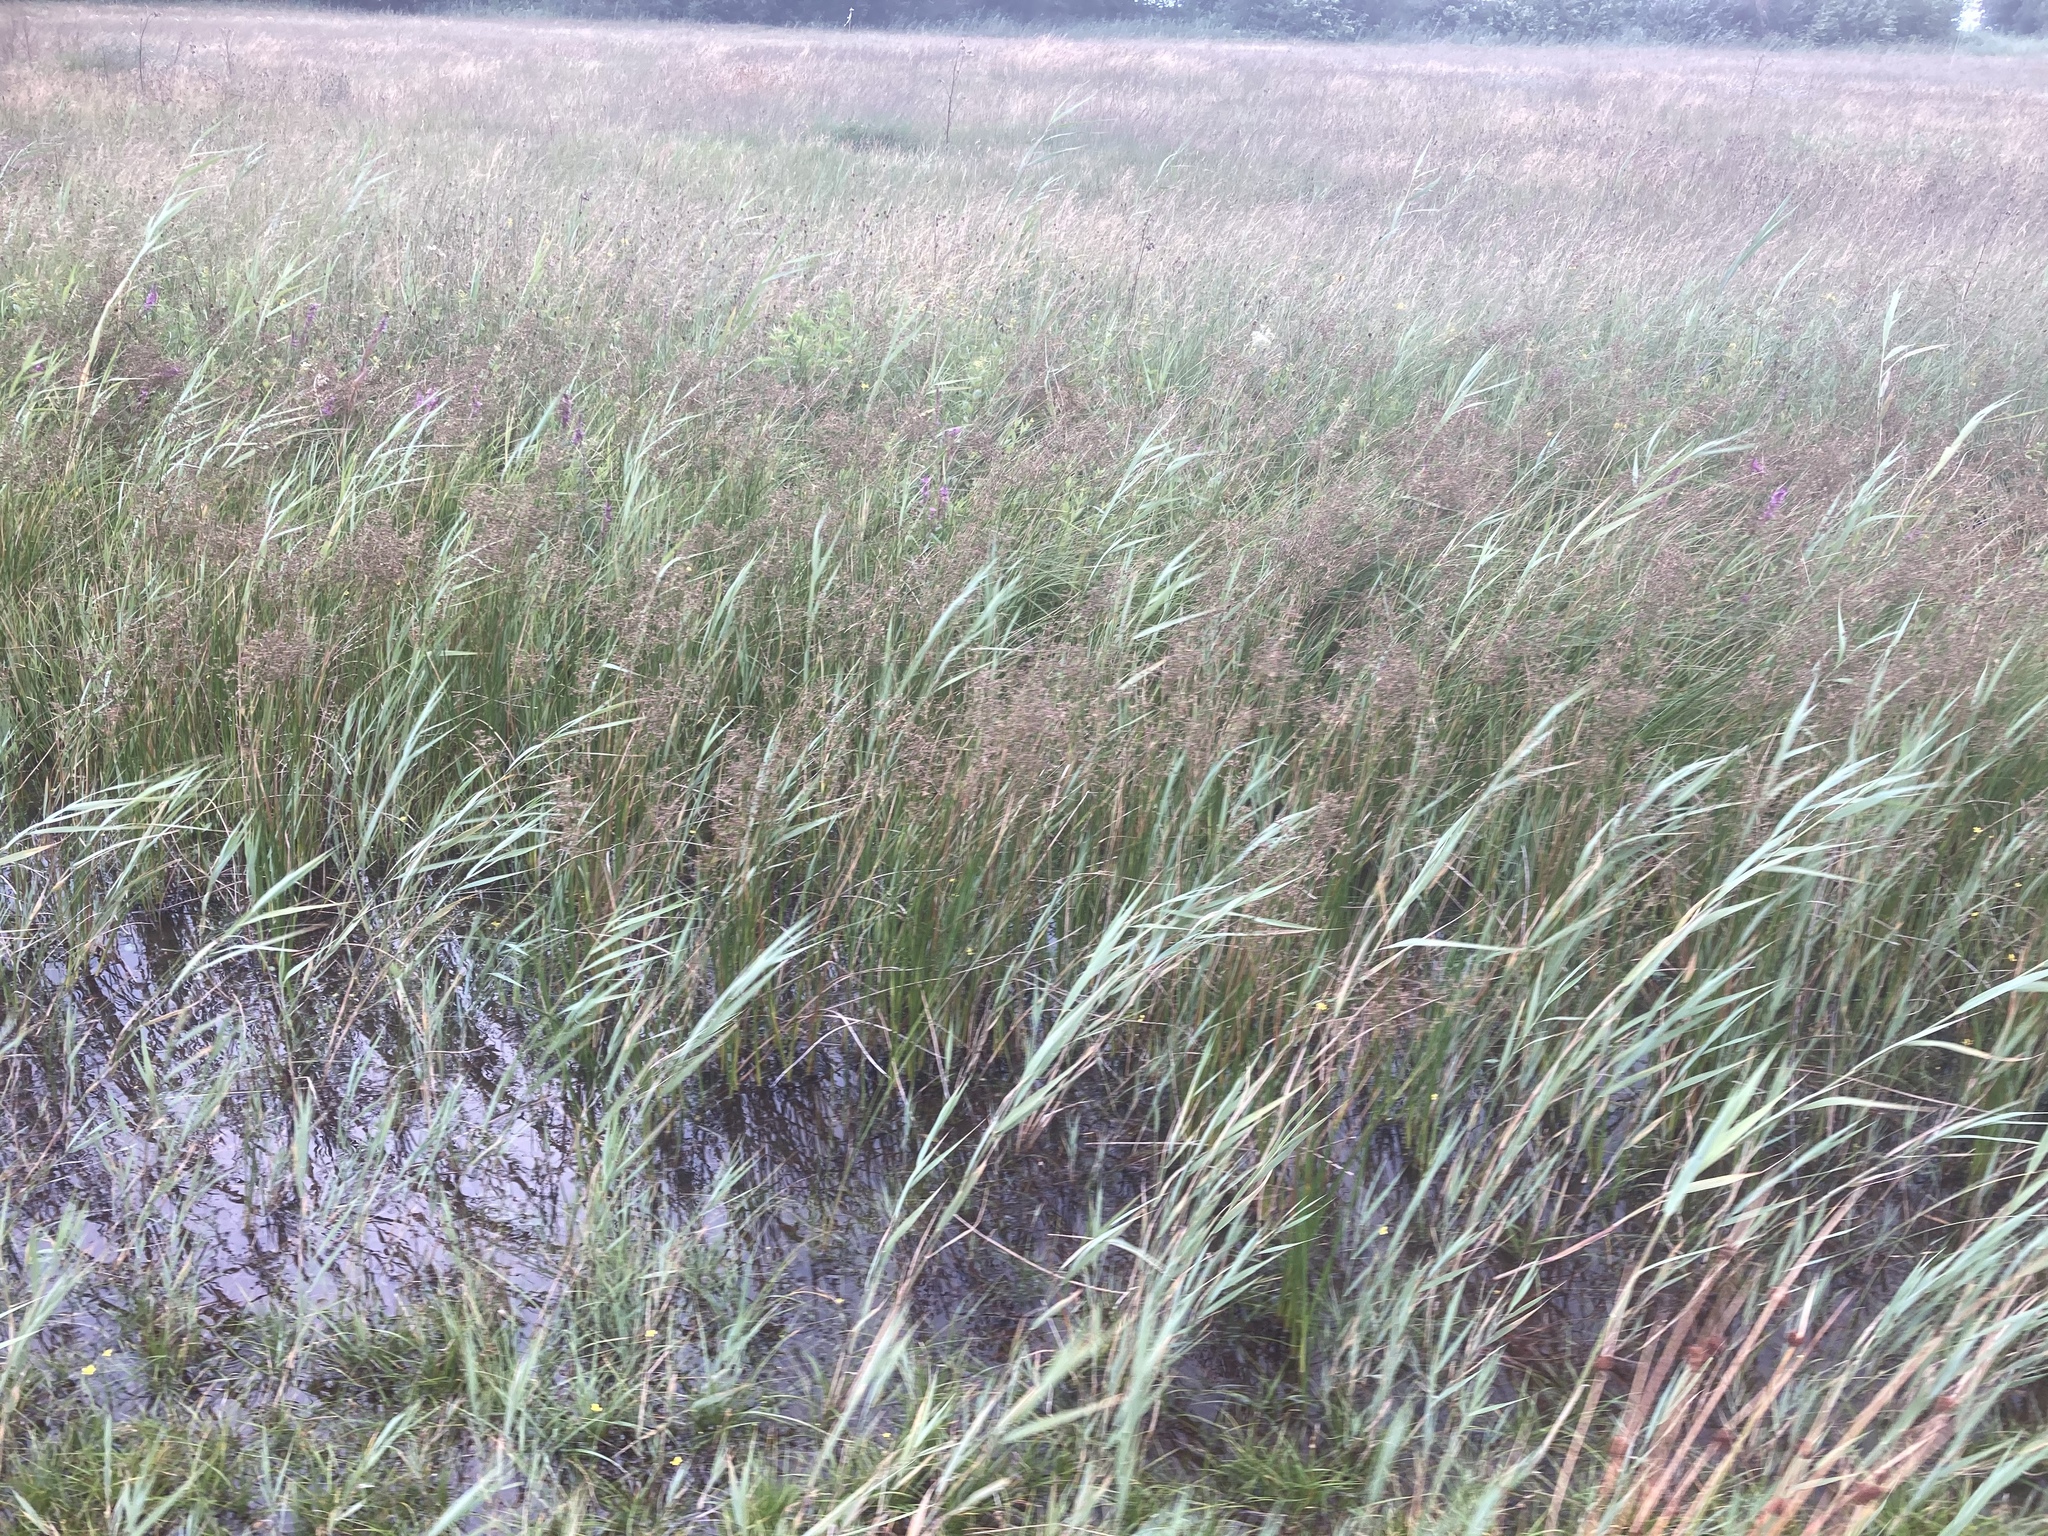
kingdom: Plantae
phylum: Tracheophyta
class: Liliopsida
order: Poales
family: Poaceae
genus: Phragmites
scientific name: Phragmites australis
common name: Common reed
